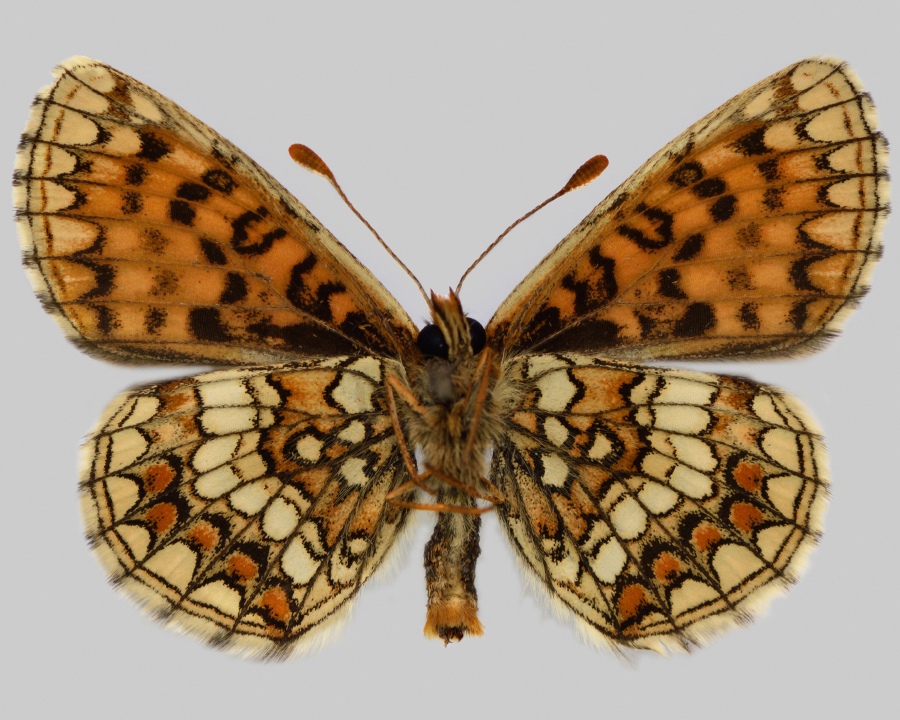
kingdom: Animalia
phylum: Arthropoda
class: Insecta
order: Lepidoptera
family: Nymphalidae
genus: Mellicta
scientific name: Mellicta aurelia
